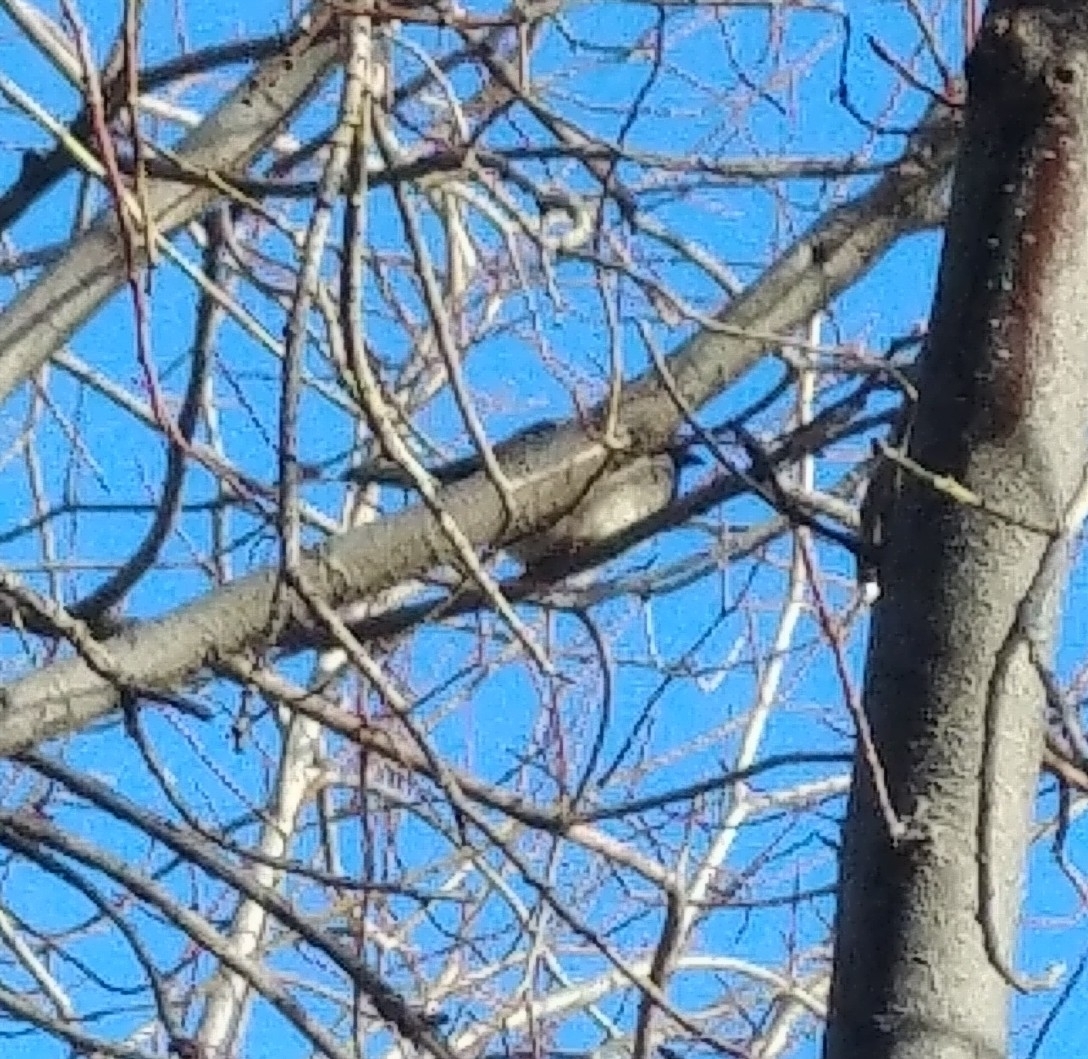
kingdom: Animalia
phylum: Chordata
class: Aves
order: Passeriformes
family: Passeridae
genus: Passer
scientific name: Passer domesticus
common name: House sparrow
